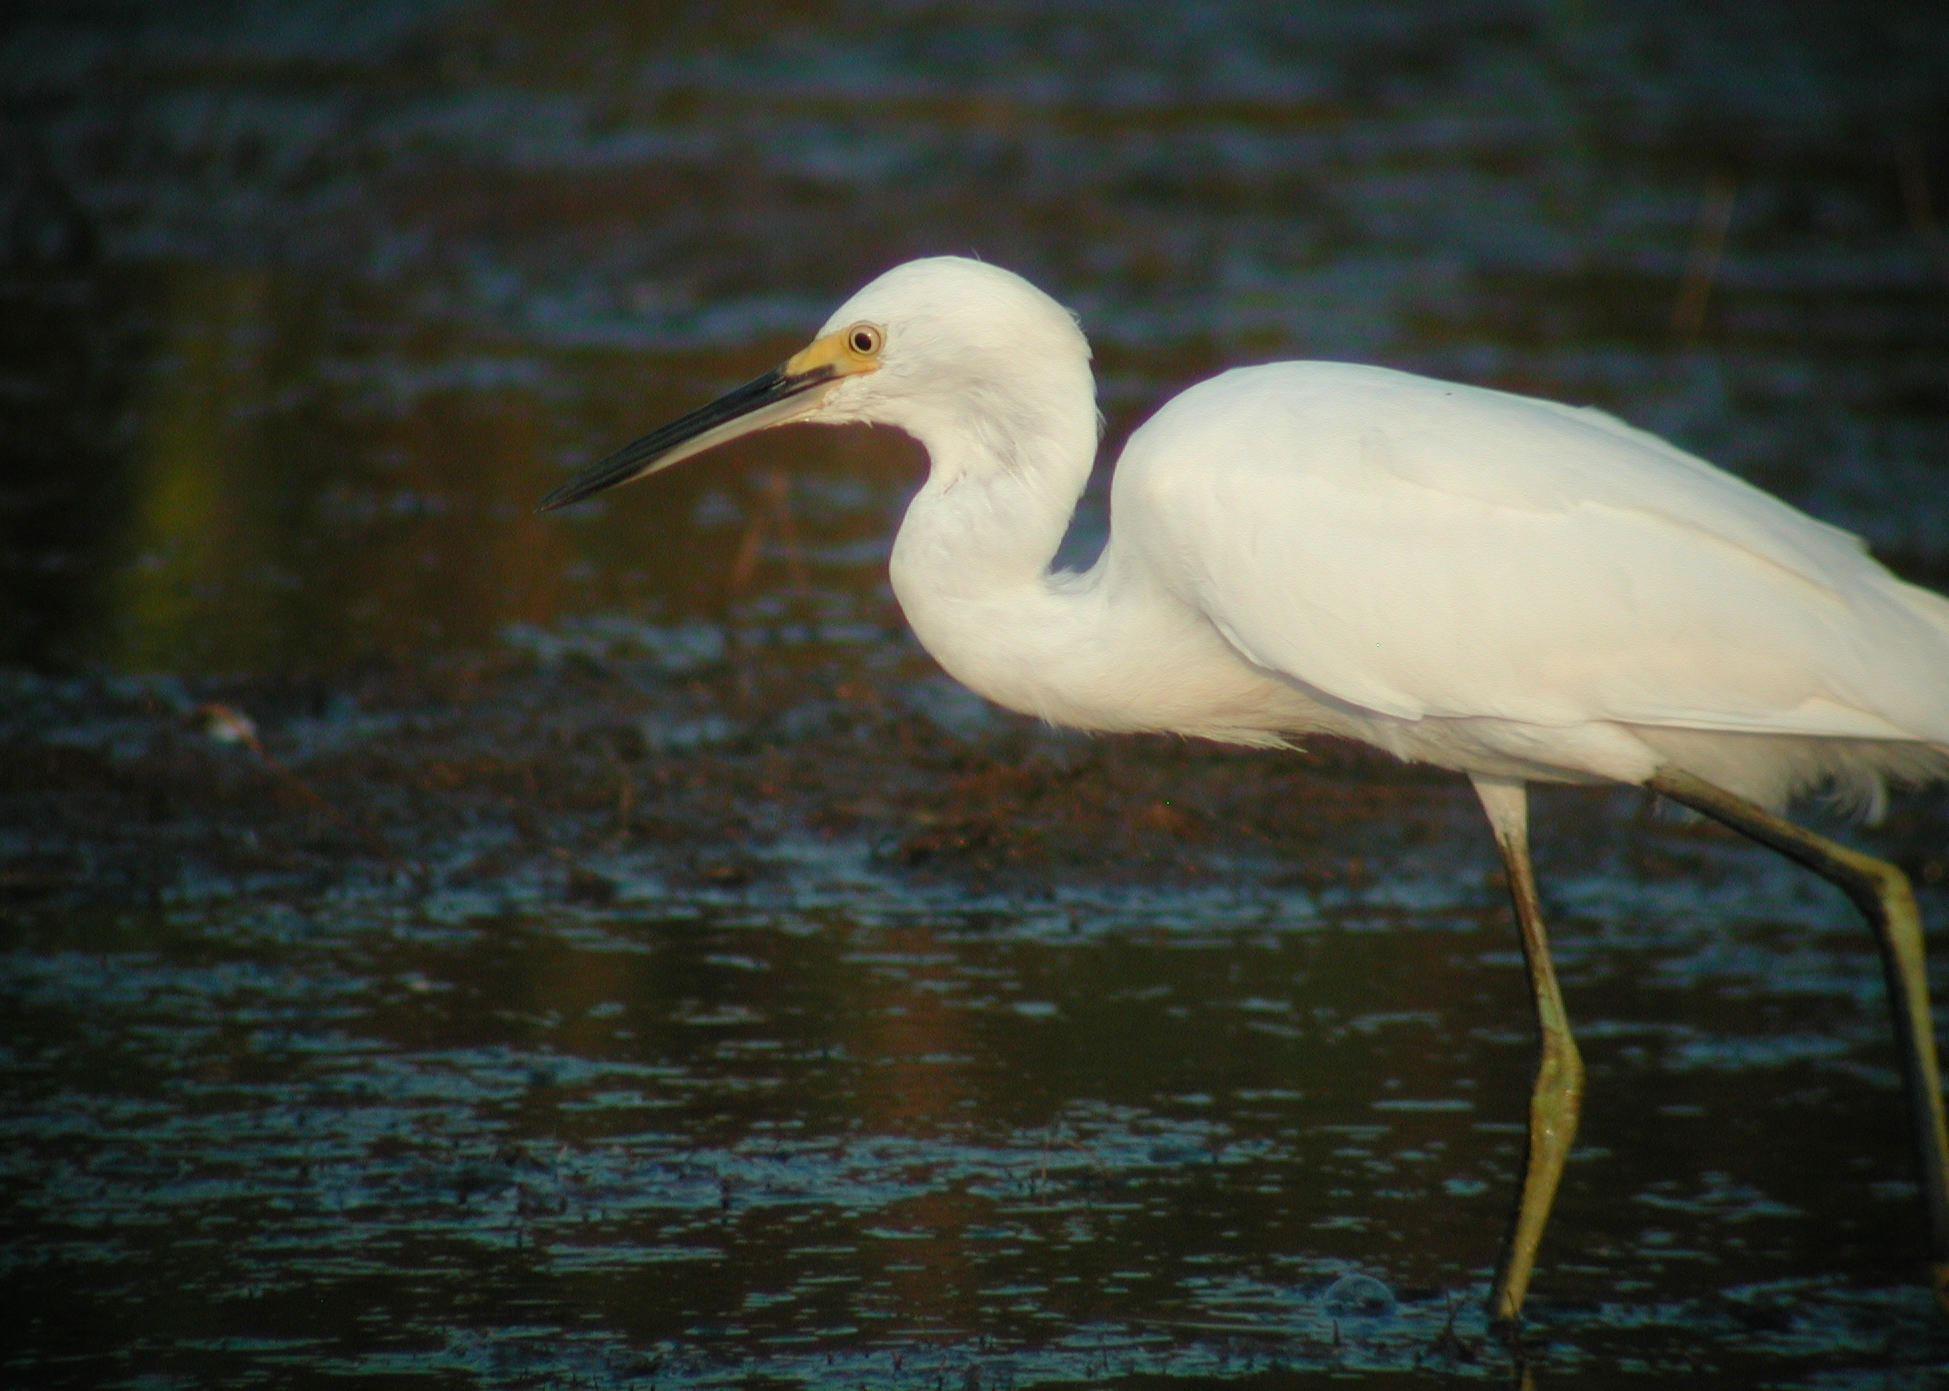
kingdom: Animalia
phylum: Chordata
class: Aves
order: Pelecaniformes
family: Ardeidae
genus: Egretta
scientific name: Egretta thula
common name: Snowy egret
